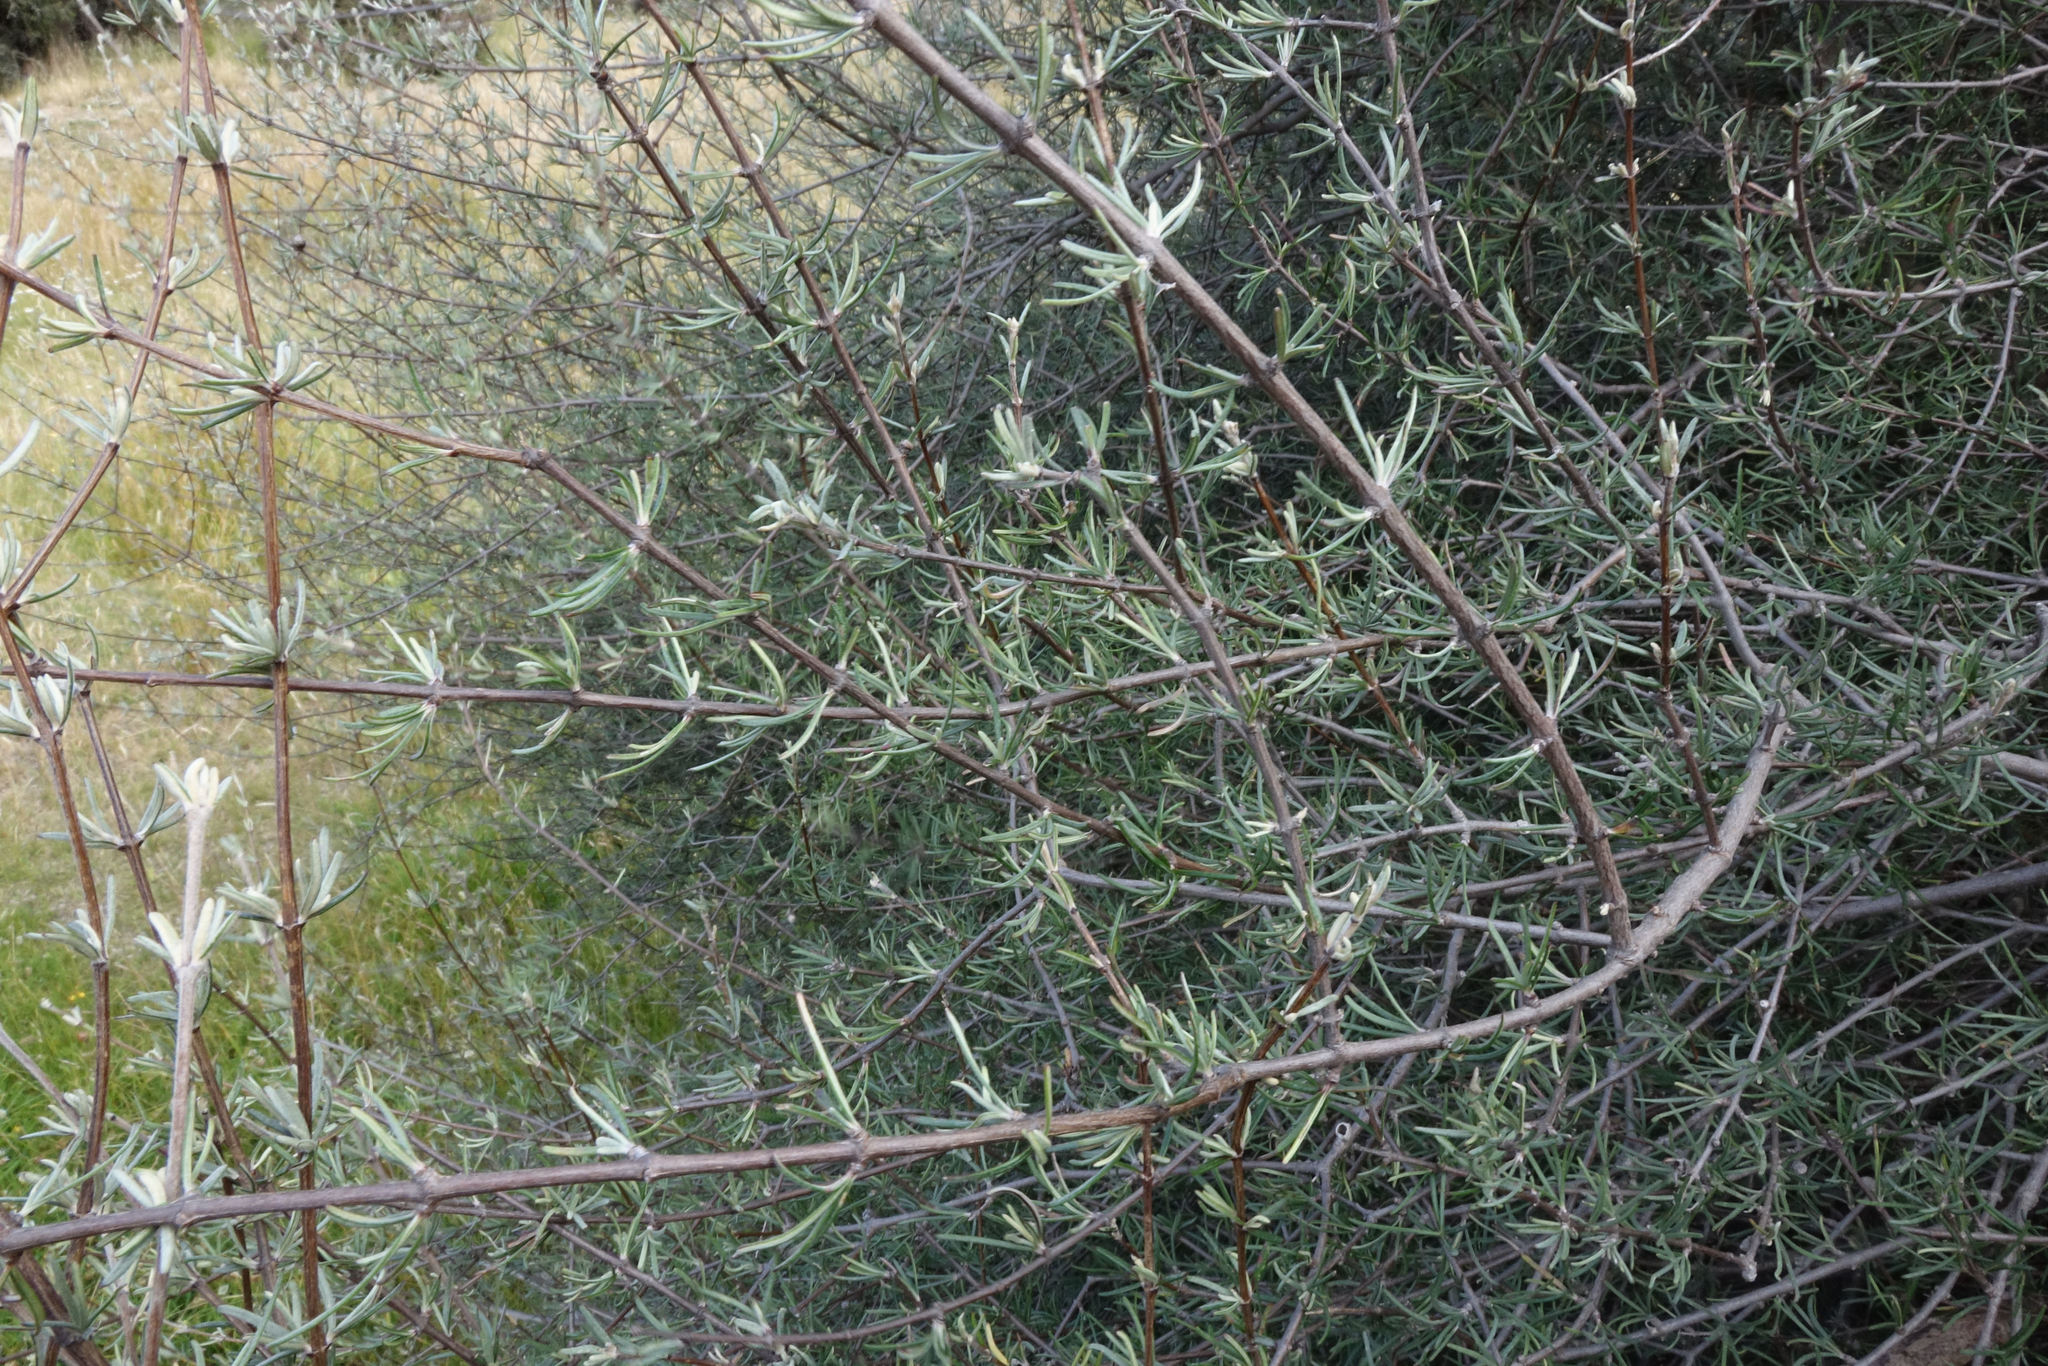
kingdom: Plantae
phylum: Tracheophyta
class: Magnoliopsida
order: Asterales
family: Asteraceae
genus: Olearia
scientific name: Olearia lineata
